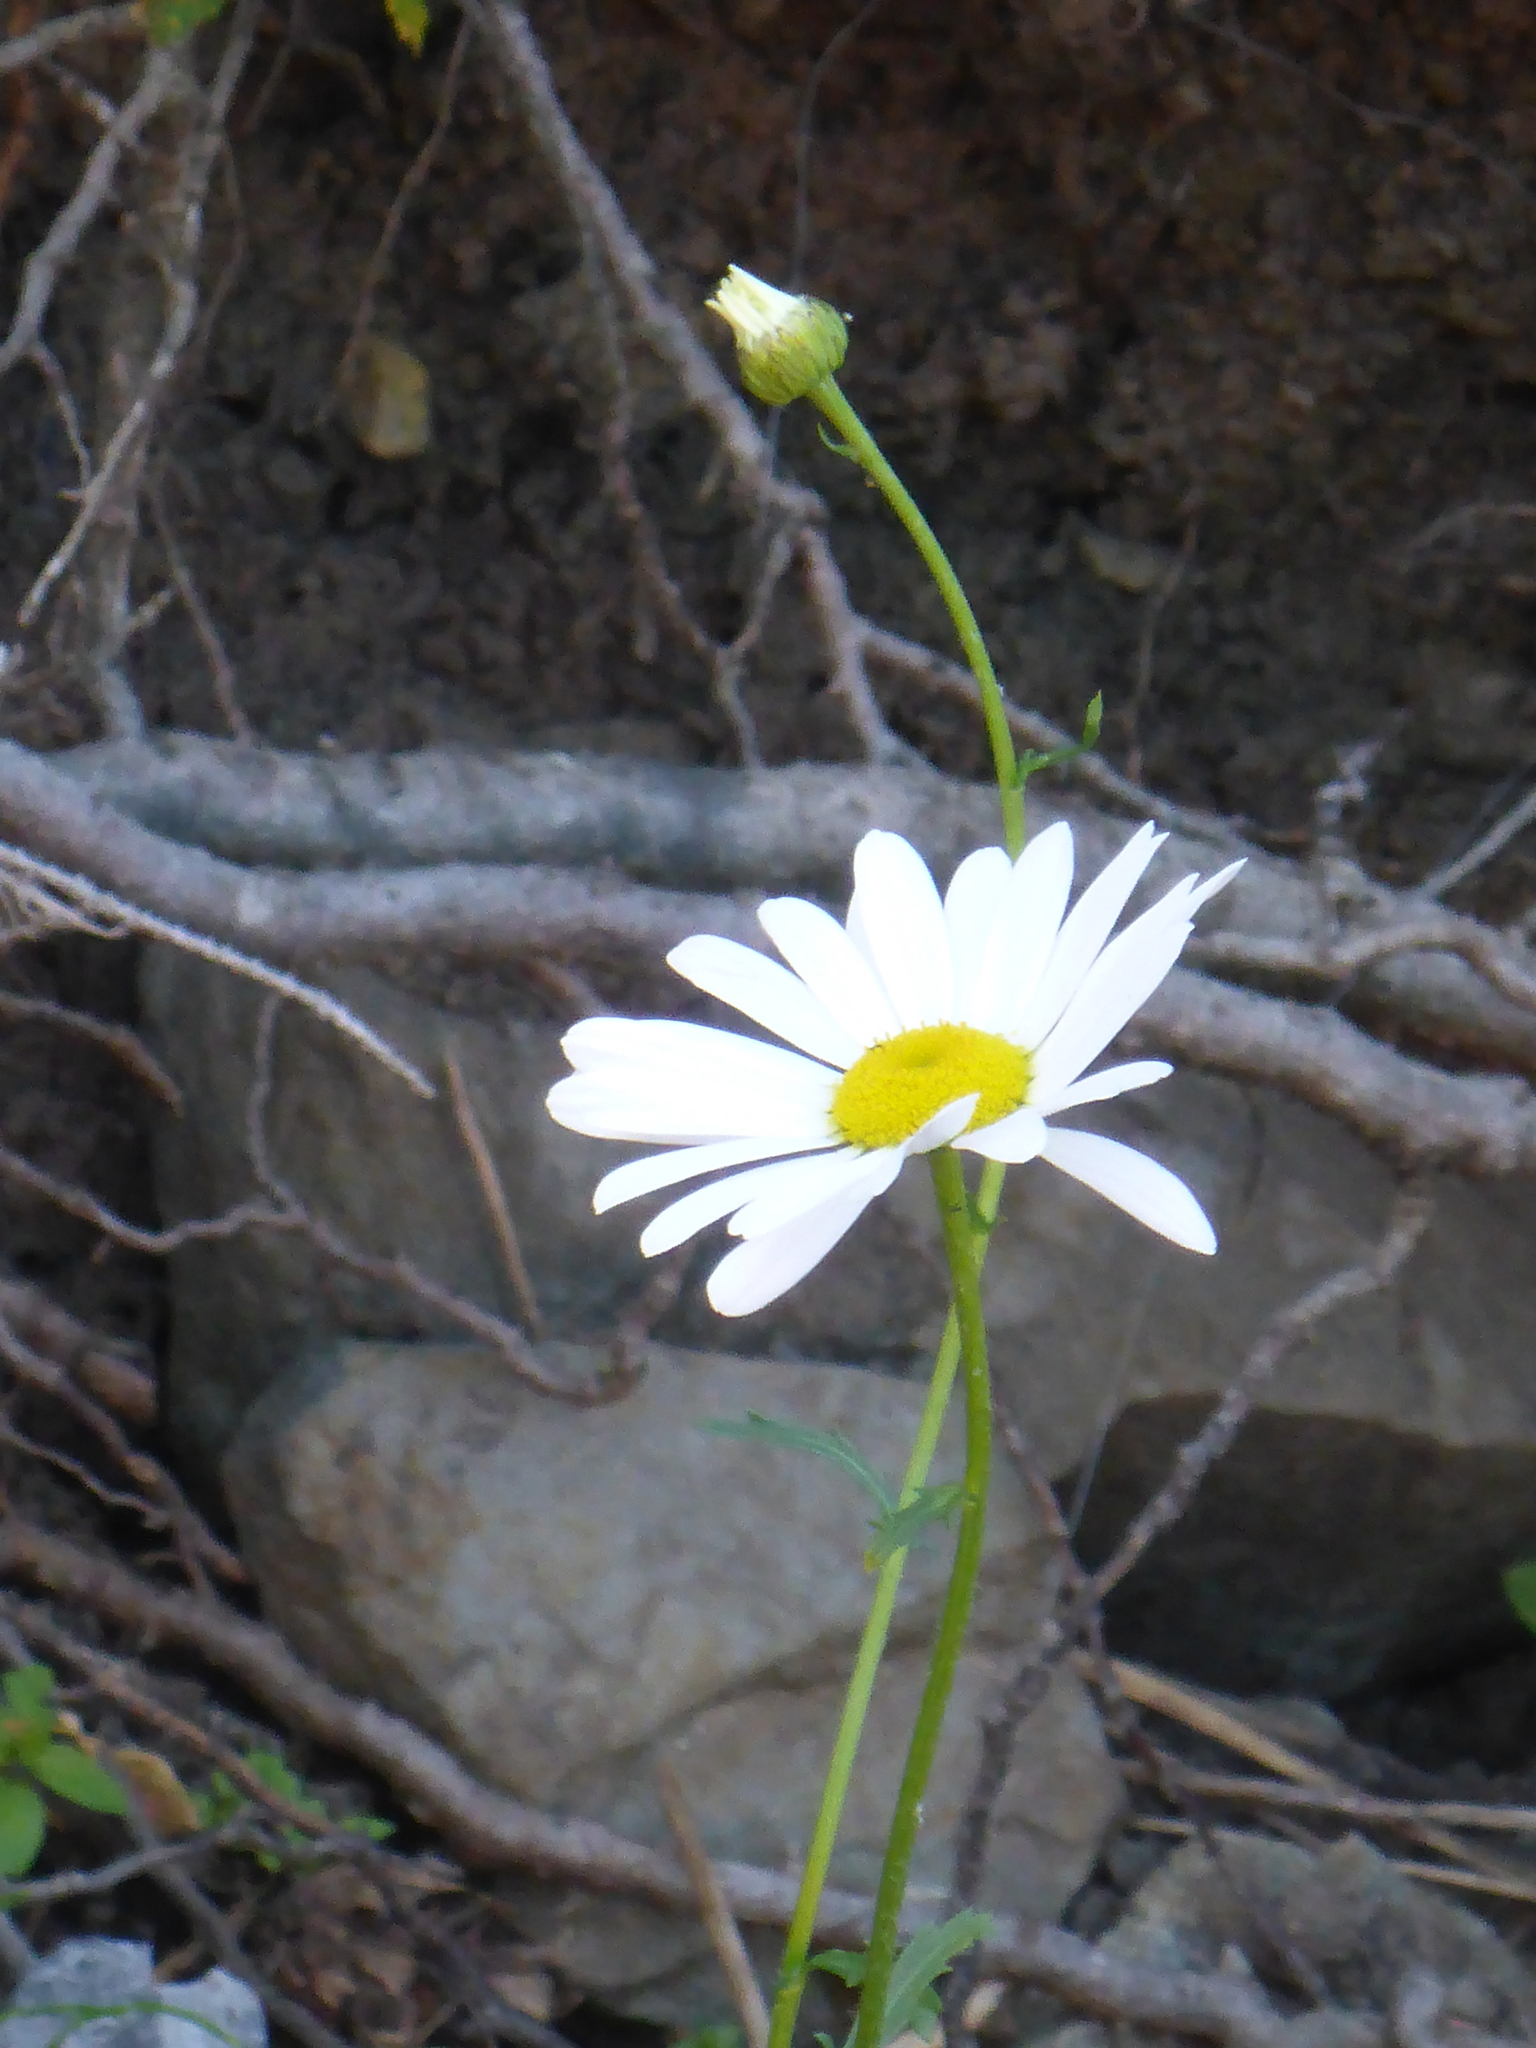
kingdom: Plantae
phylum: Tracheophyta
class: Magnoliopsida
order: Asterales
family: Asteraceae
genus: Leucanthemum
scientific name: Leucanthemum vulgare
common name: Oxeye daisy
